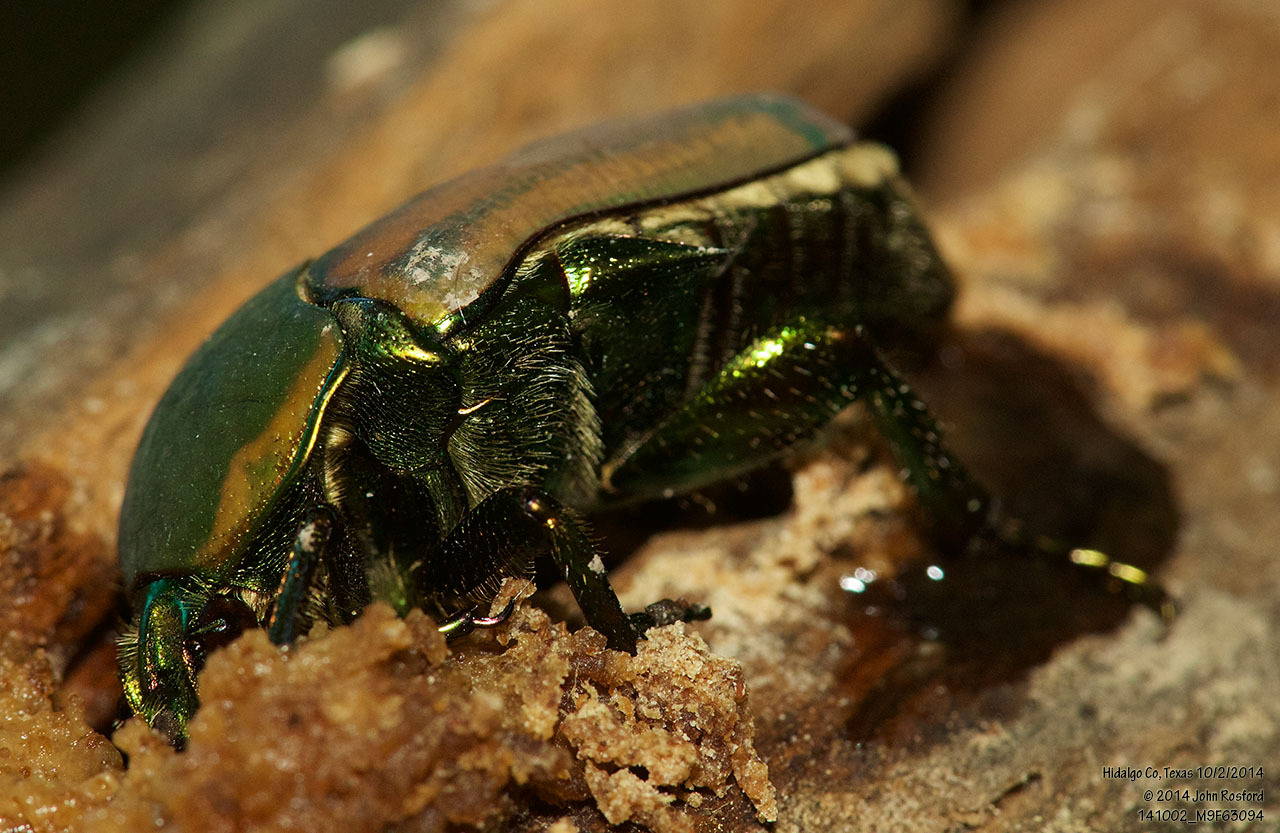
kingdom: Animalia
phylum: Arthropoda
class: Insecta
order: Coleoptera
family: Scarabaeidae
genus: Cotinis
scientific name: Cotinis mutabilis
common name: Figeater beetle
